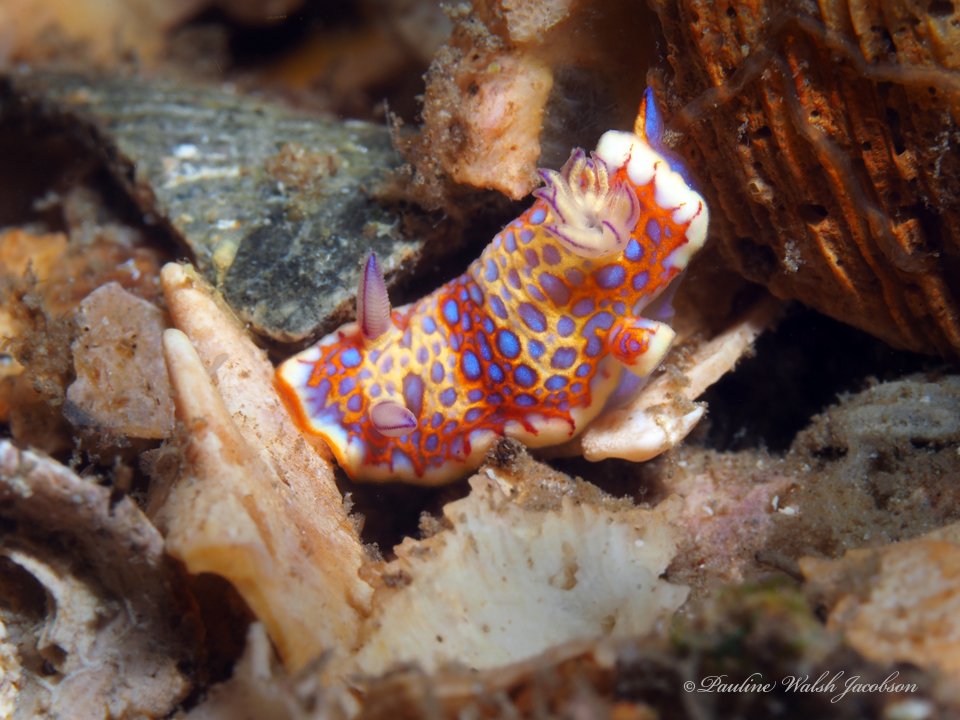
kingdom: Animalia
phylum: Mollusca
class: Gastropoda
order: Nudibranchia
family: Chromodorididae
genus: Felimida
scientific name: Felimida binza
